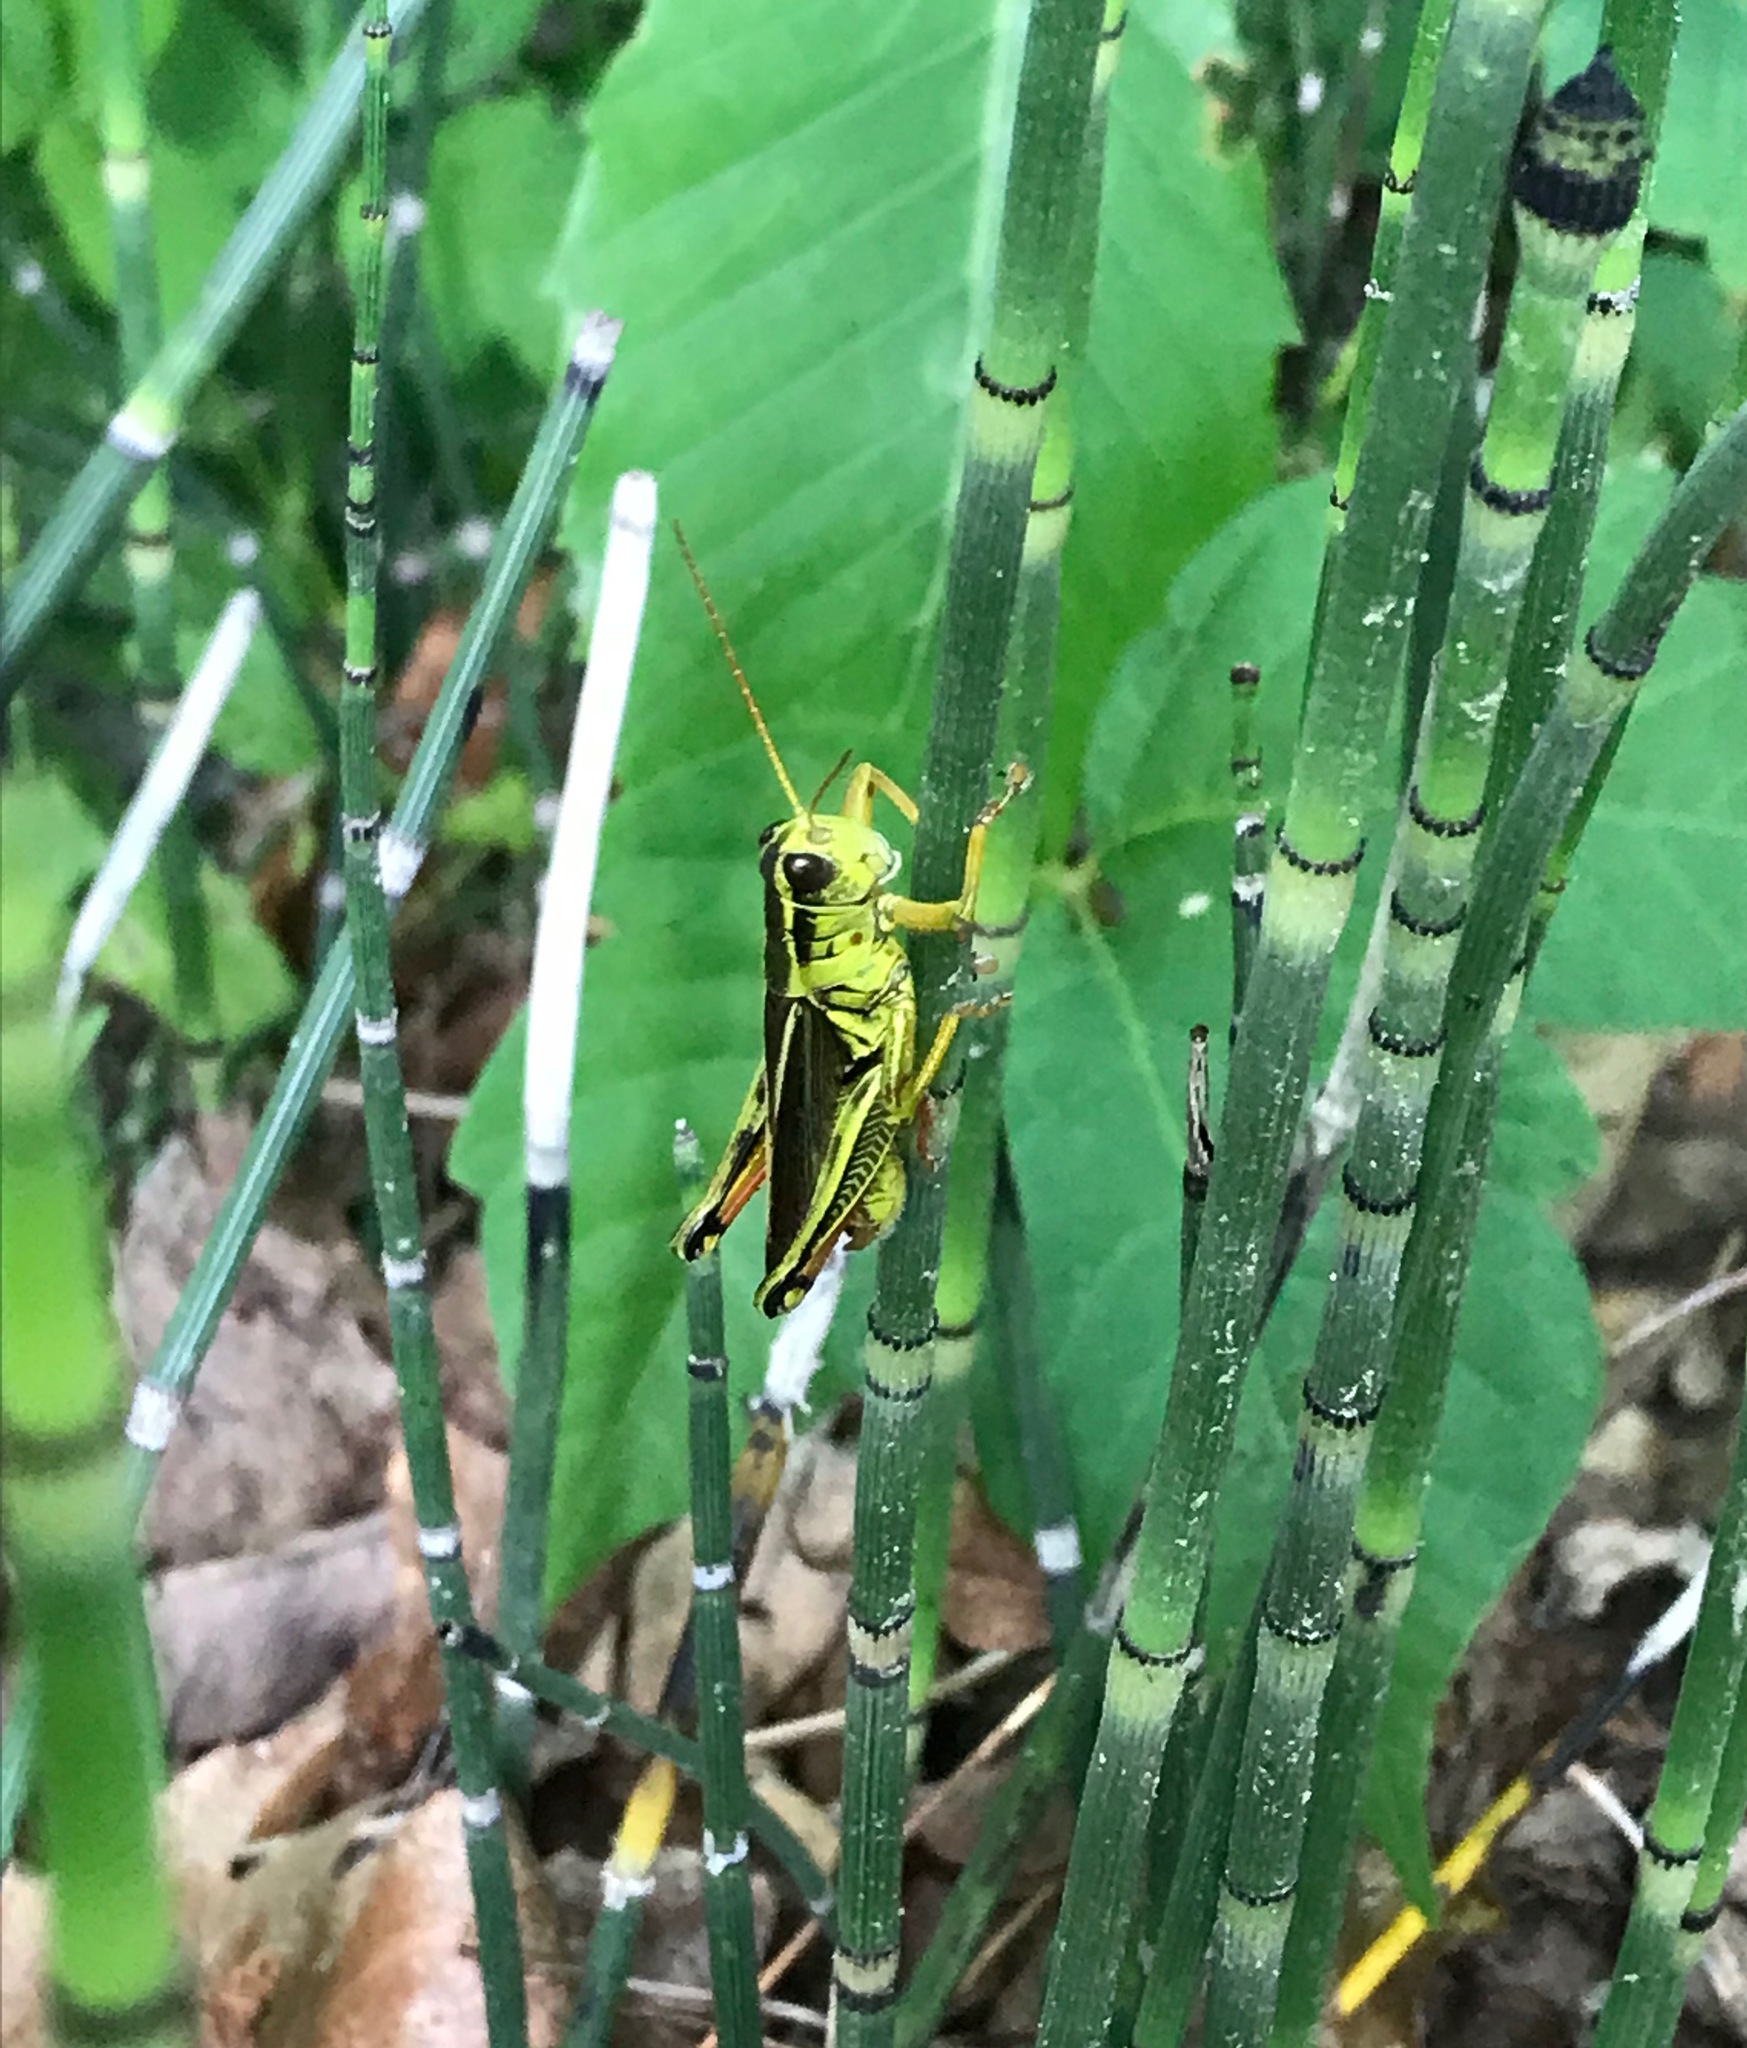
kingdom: Animalia
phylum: Arthropoda
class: Insecta
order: Orthoptera
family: Acrididae
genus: Melanoplus
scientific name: Melanoplus bivittatus
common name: Two-striped grasshopper
